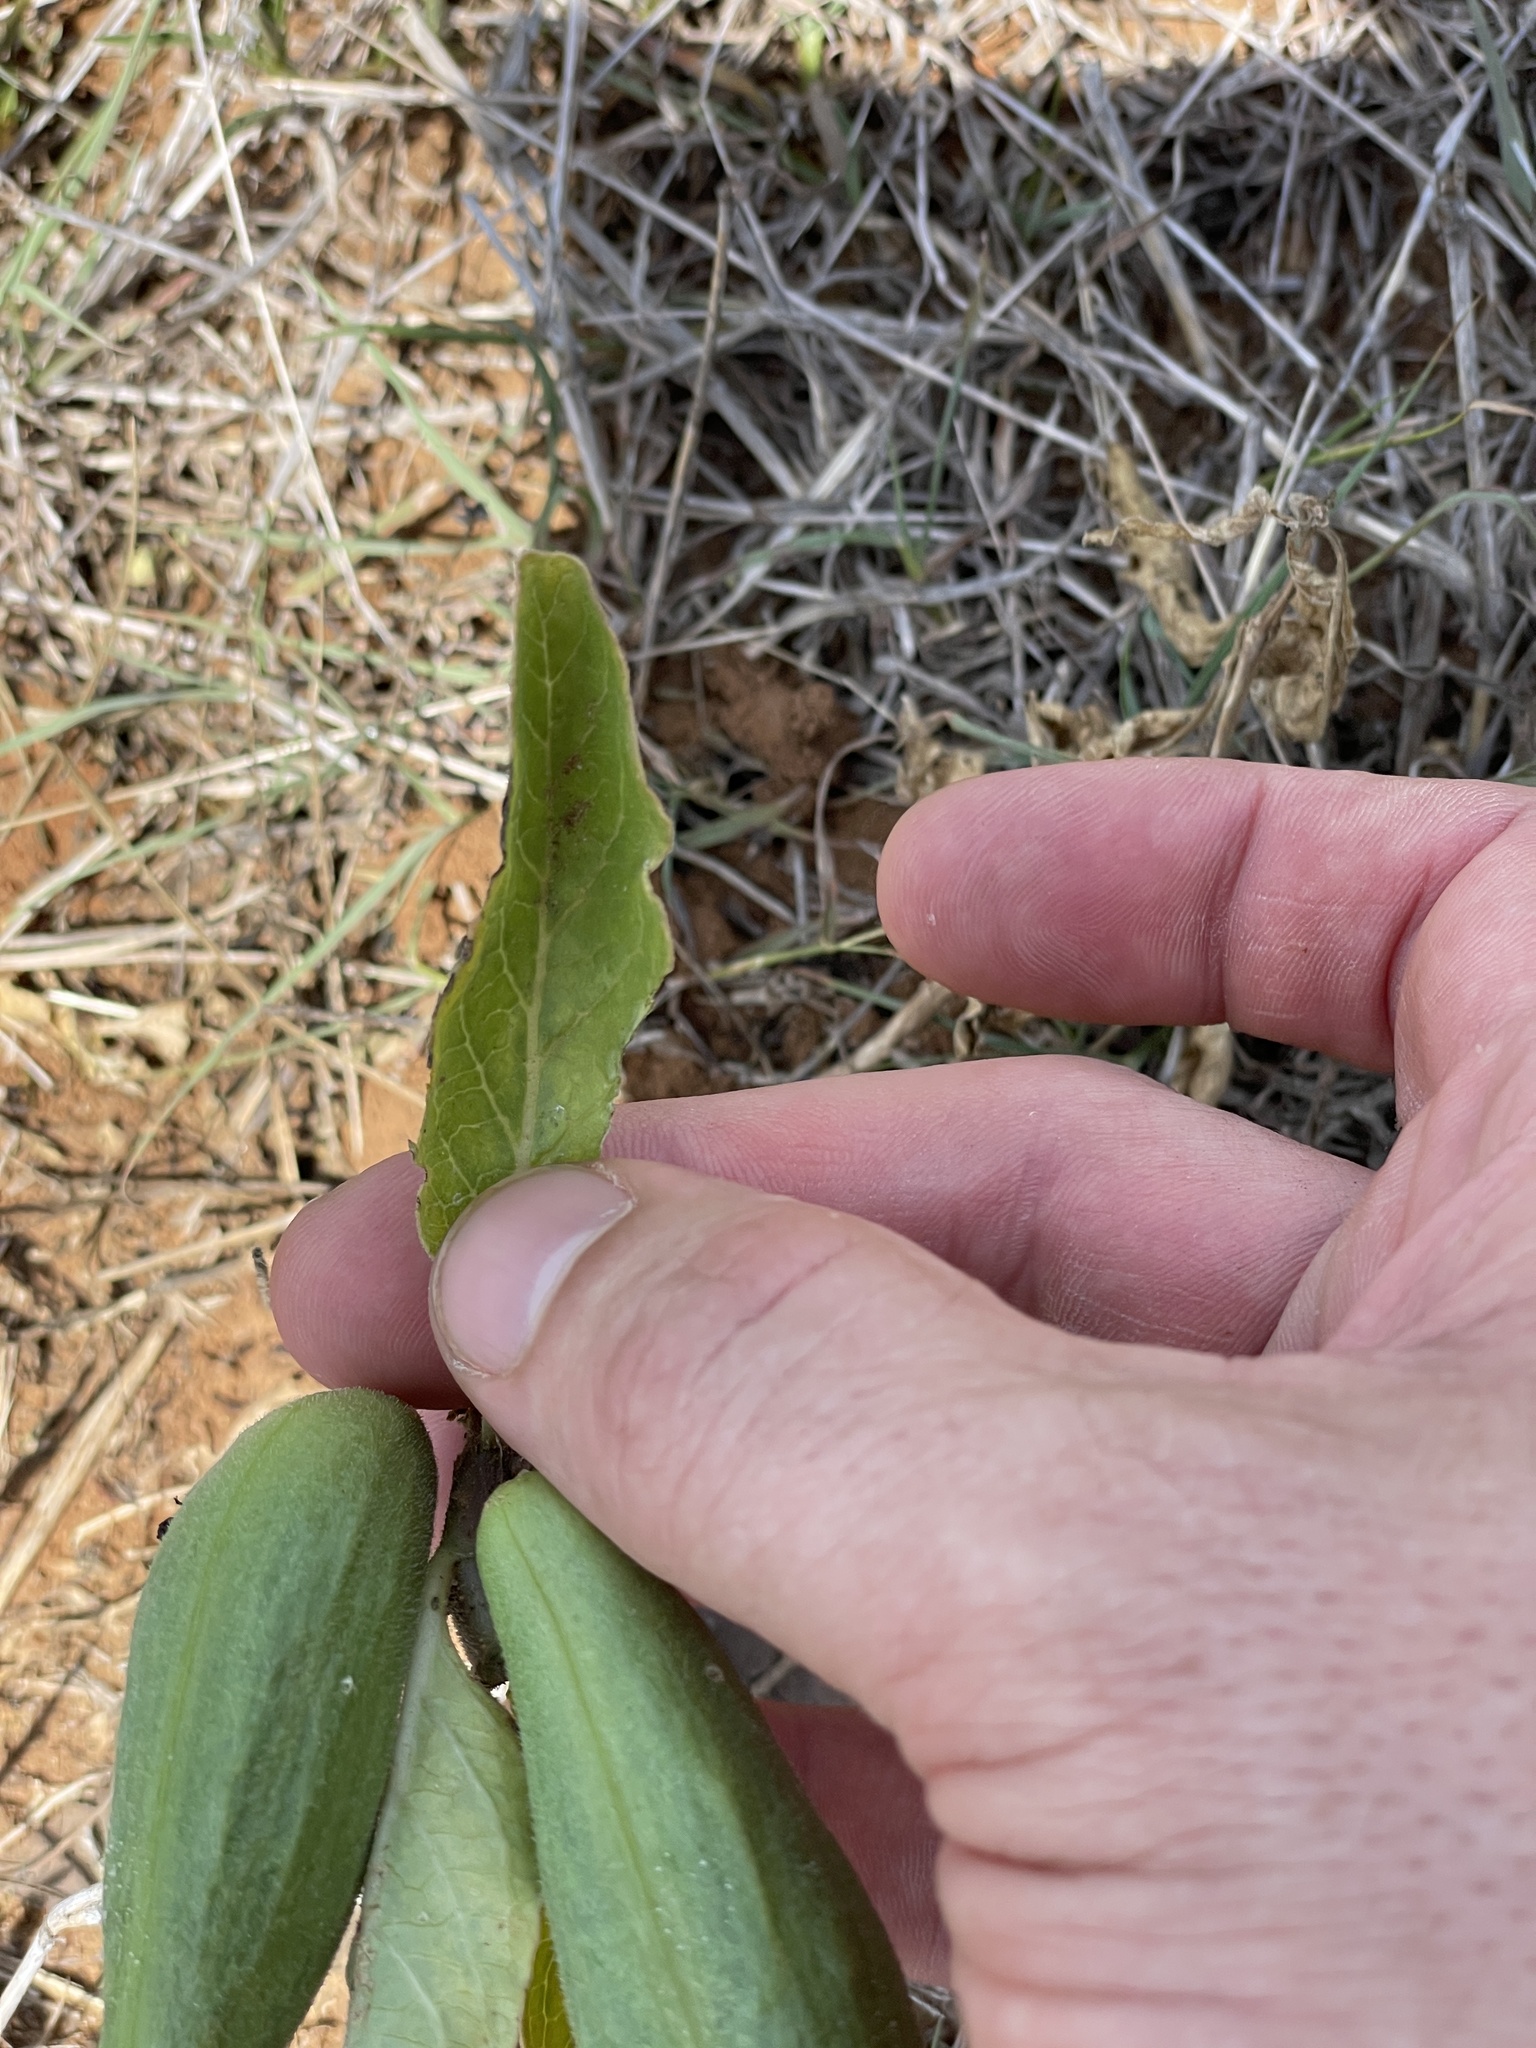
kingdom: Plantae
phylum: Tracheophyta
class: Magnoliopsida
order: Gentianales
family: Apocynaceae
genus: Asclepias
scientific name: Asclepias oenotheroides
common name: Zizotes milkweed
